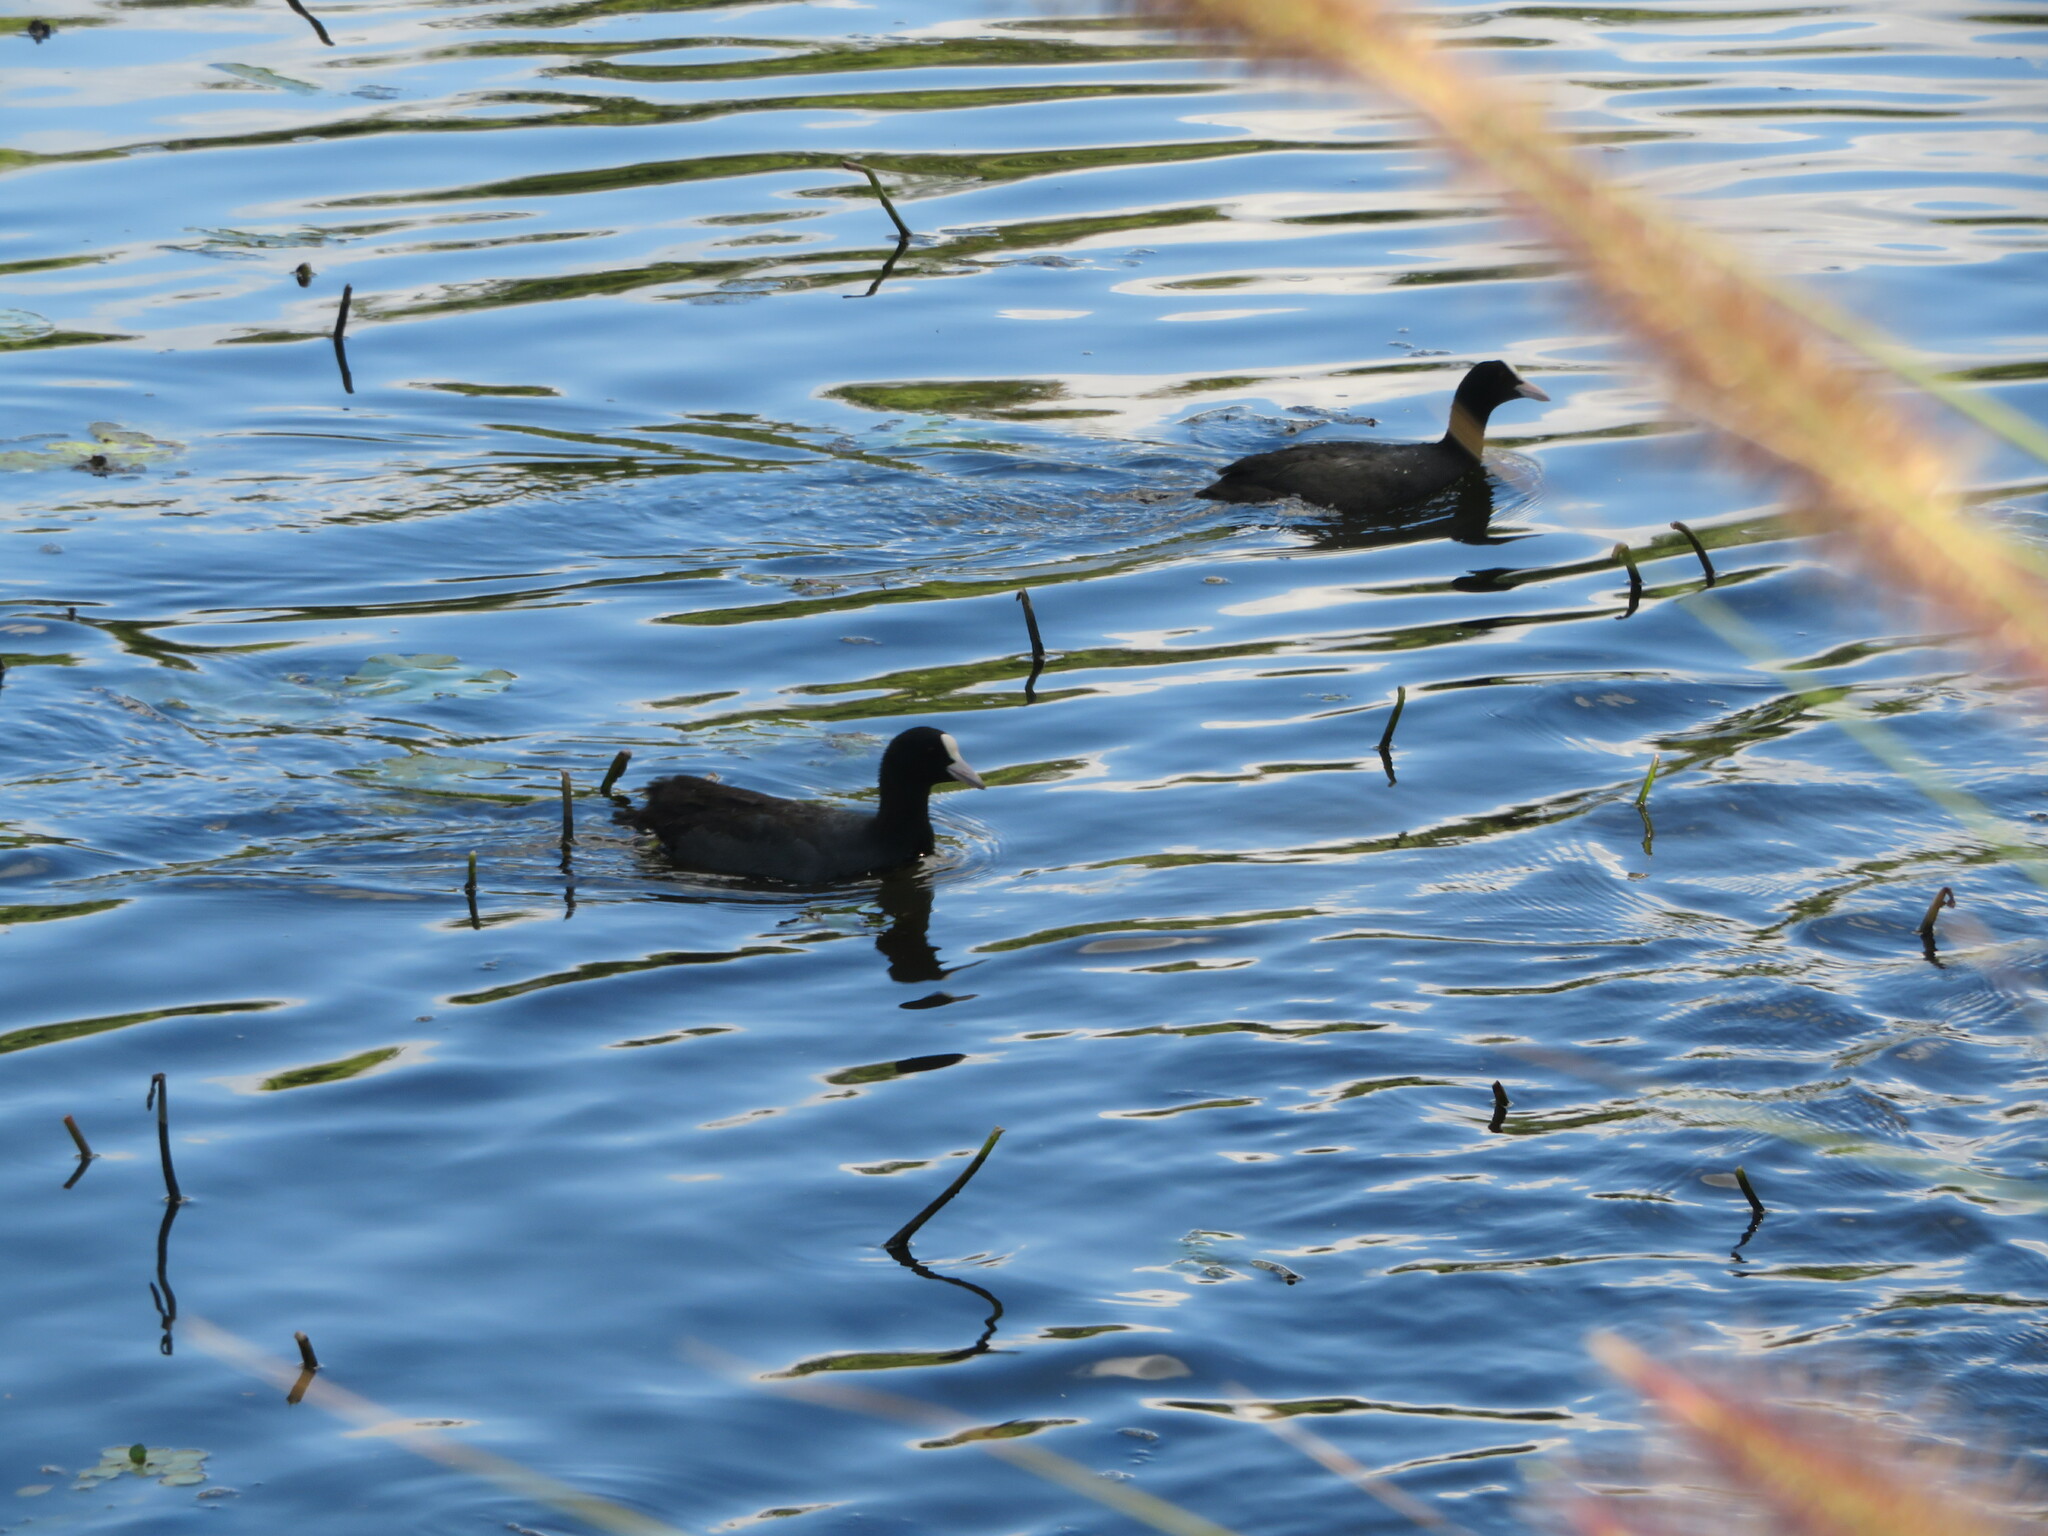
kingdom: Animalia
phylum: Chordata
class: Aves
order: Gruiformes
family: Rallidae
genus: Fulica
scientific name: Fulica atra
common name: Eurasian coot
